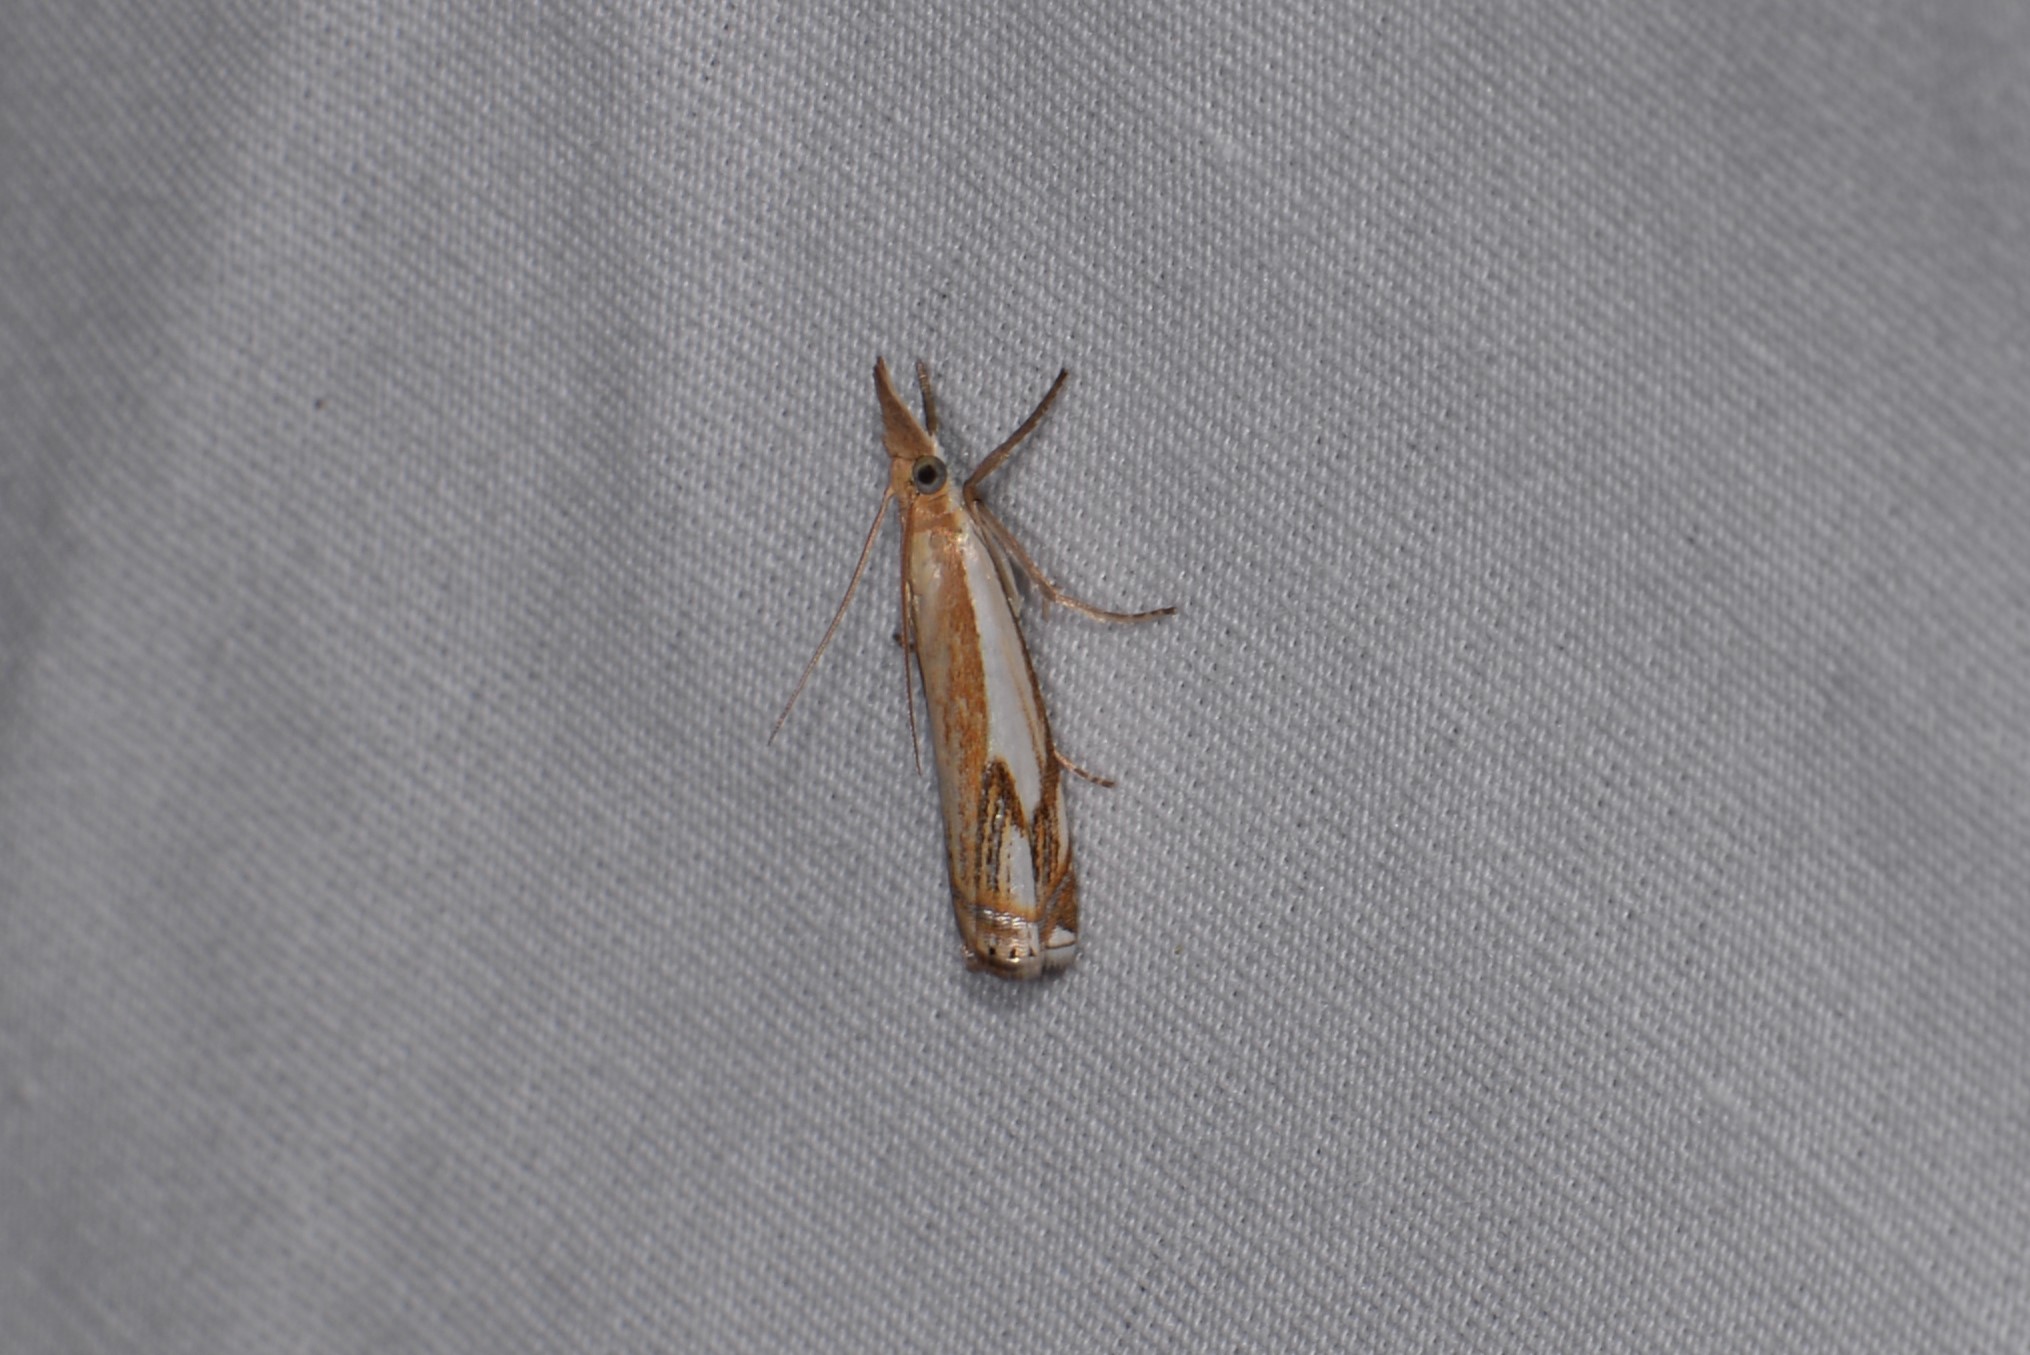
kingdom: Animalia
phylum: Arthropoda
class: Insecta
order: Lepidoptera
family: Crambidae
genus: Crambus
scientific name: Crambus agitatellus
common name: Double-banded grass-veneer
